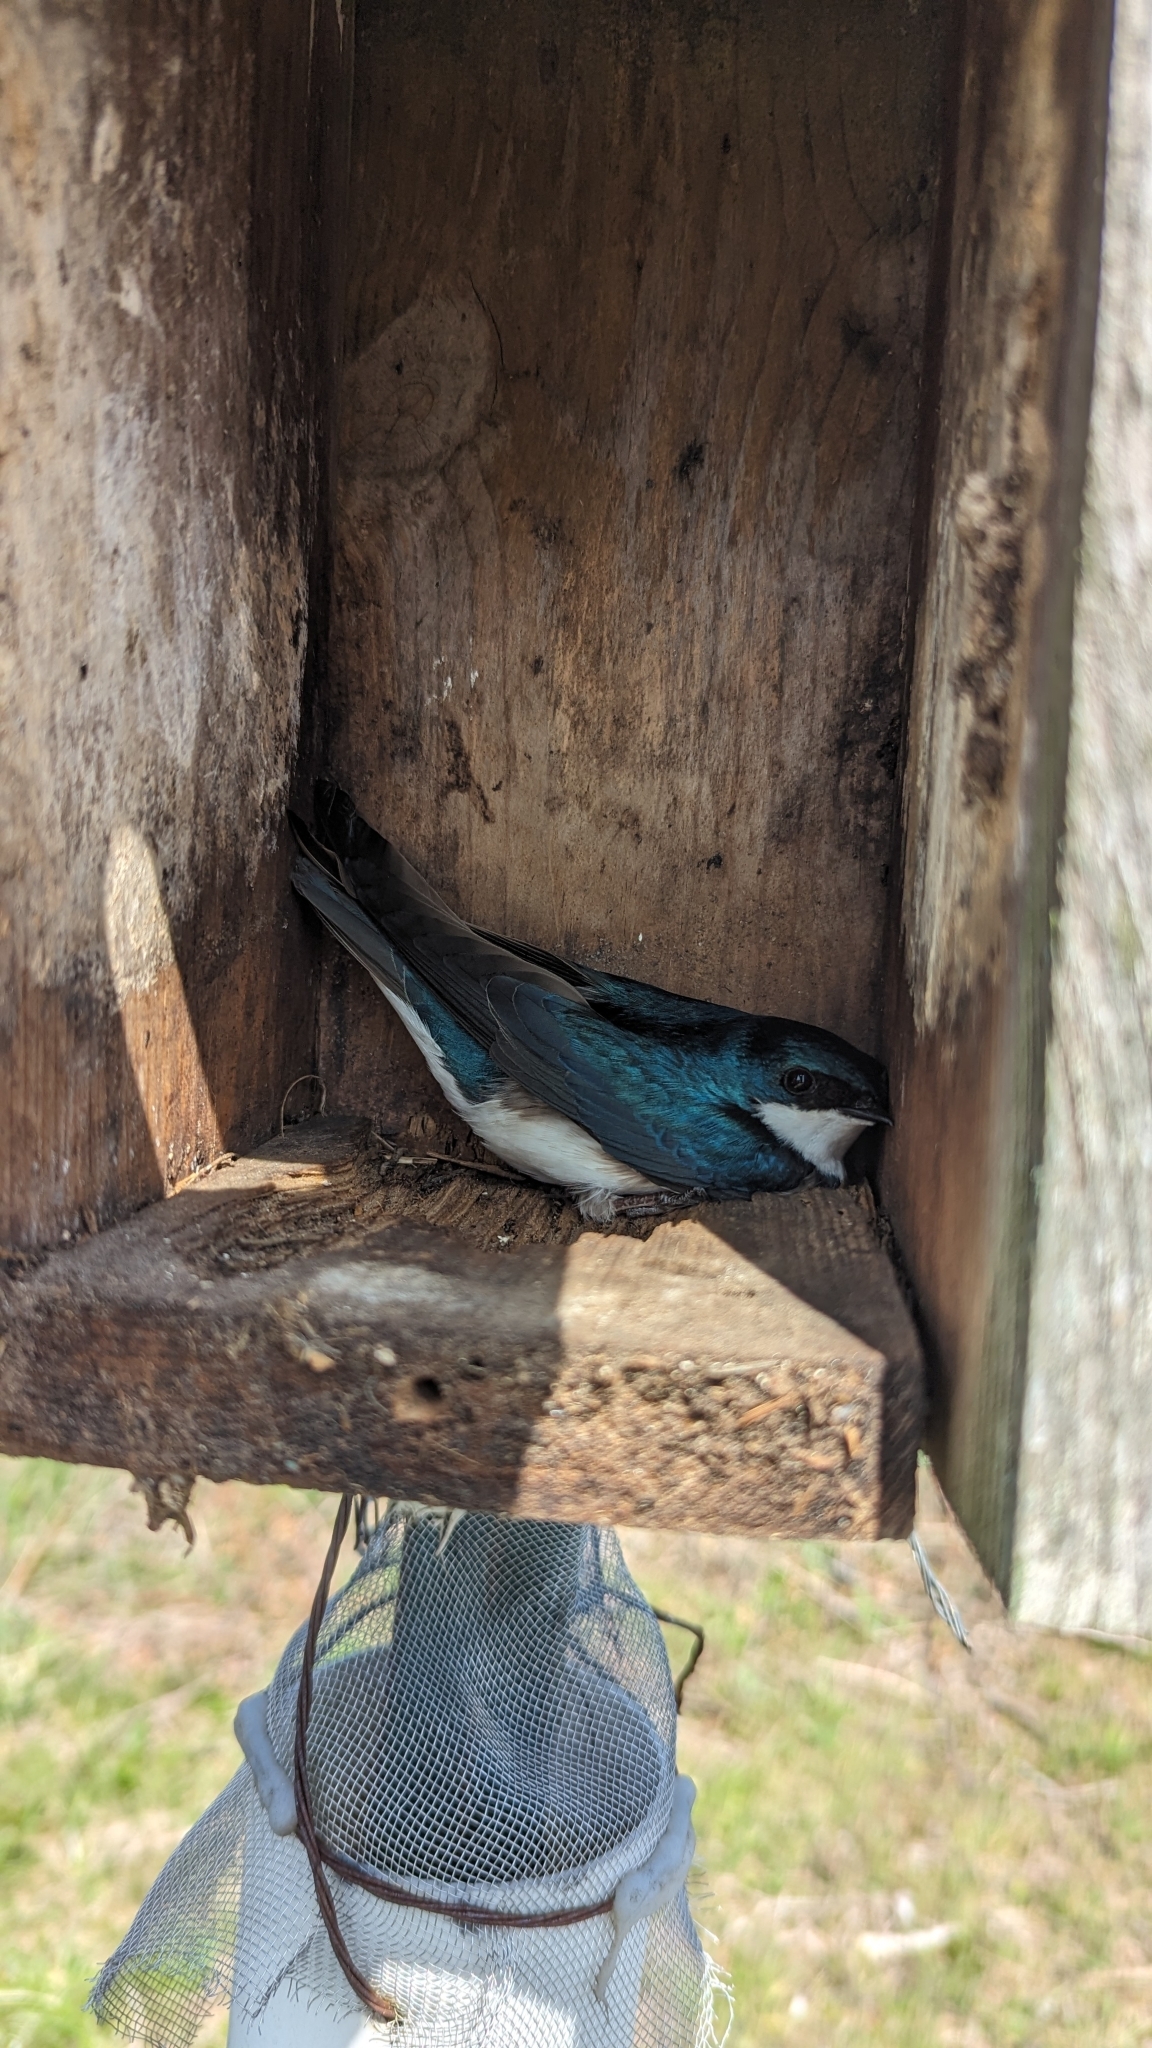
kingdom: Animalia
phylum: Chordata
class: Aves
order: Passeriformes
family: Hirundinidae
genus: Tachycineta
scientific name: Tachycineta bicolor
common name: Tree swallow
